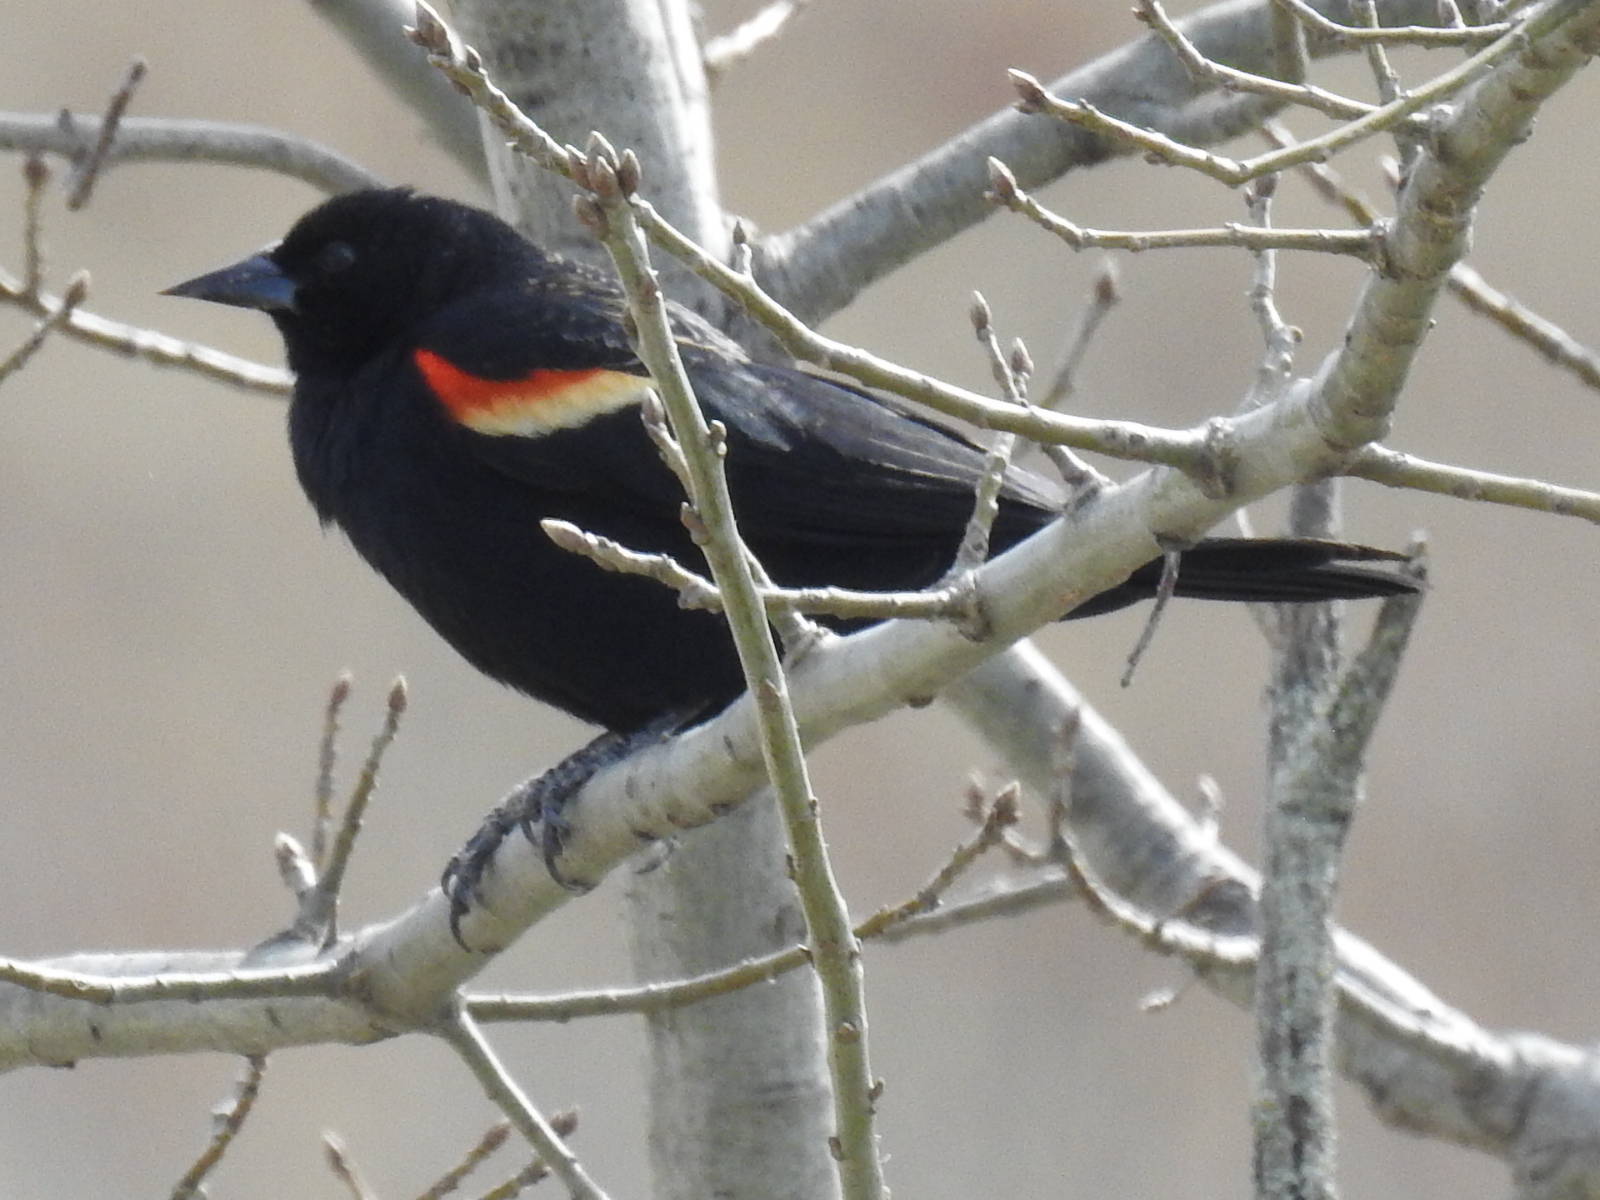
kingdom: Animalia
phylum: Chordata
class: Aves
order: Passeriformes
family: Icteridae
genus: Agelaius
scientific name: Agelaius phoeniceus
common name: Red-winged blackbird
